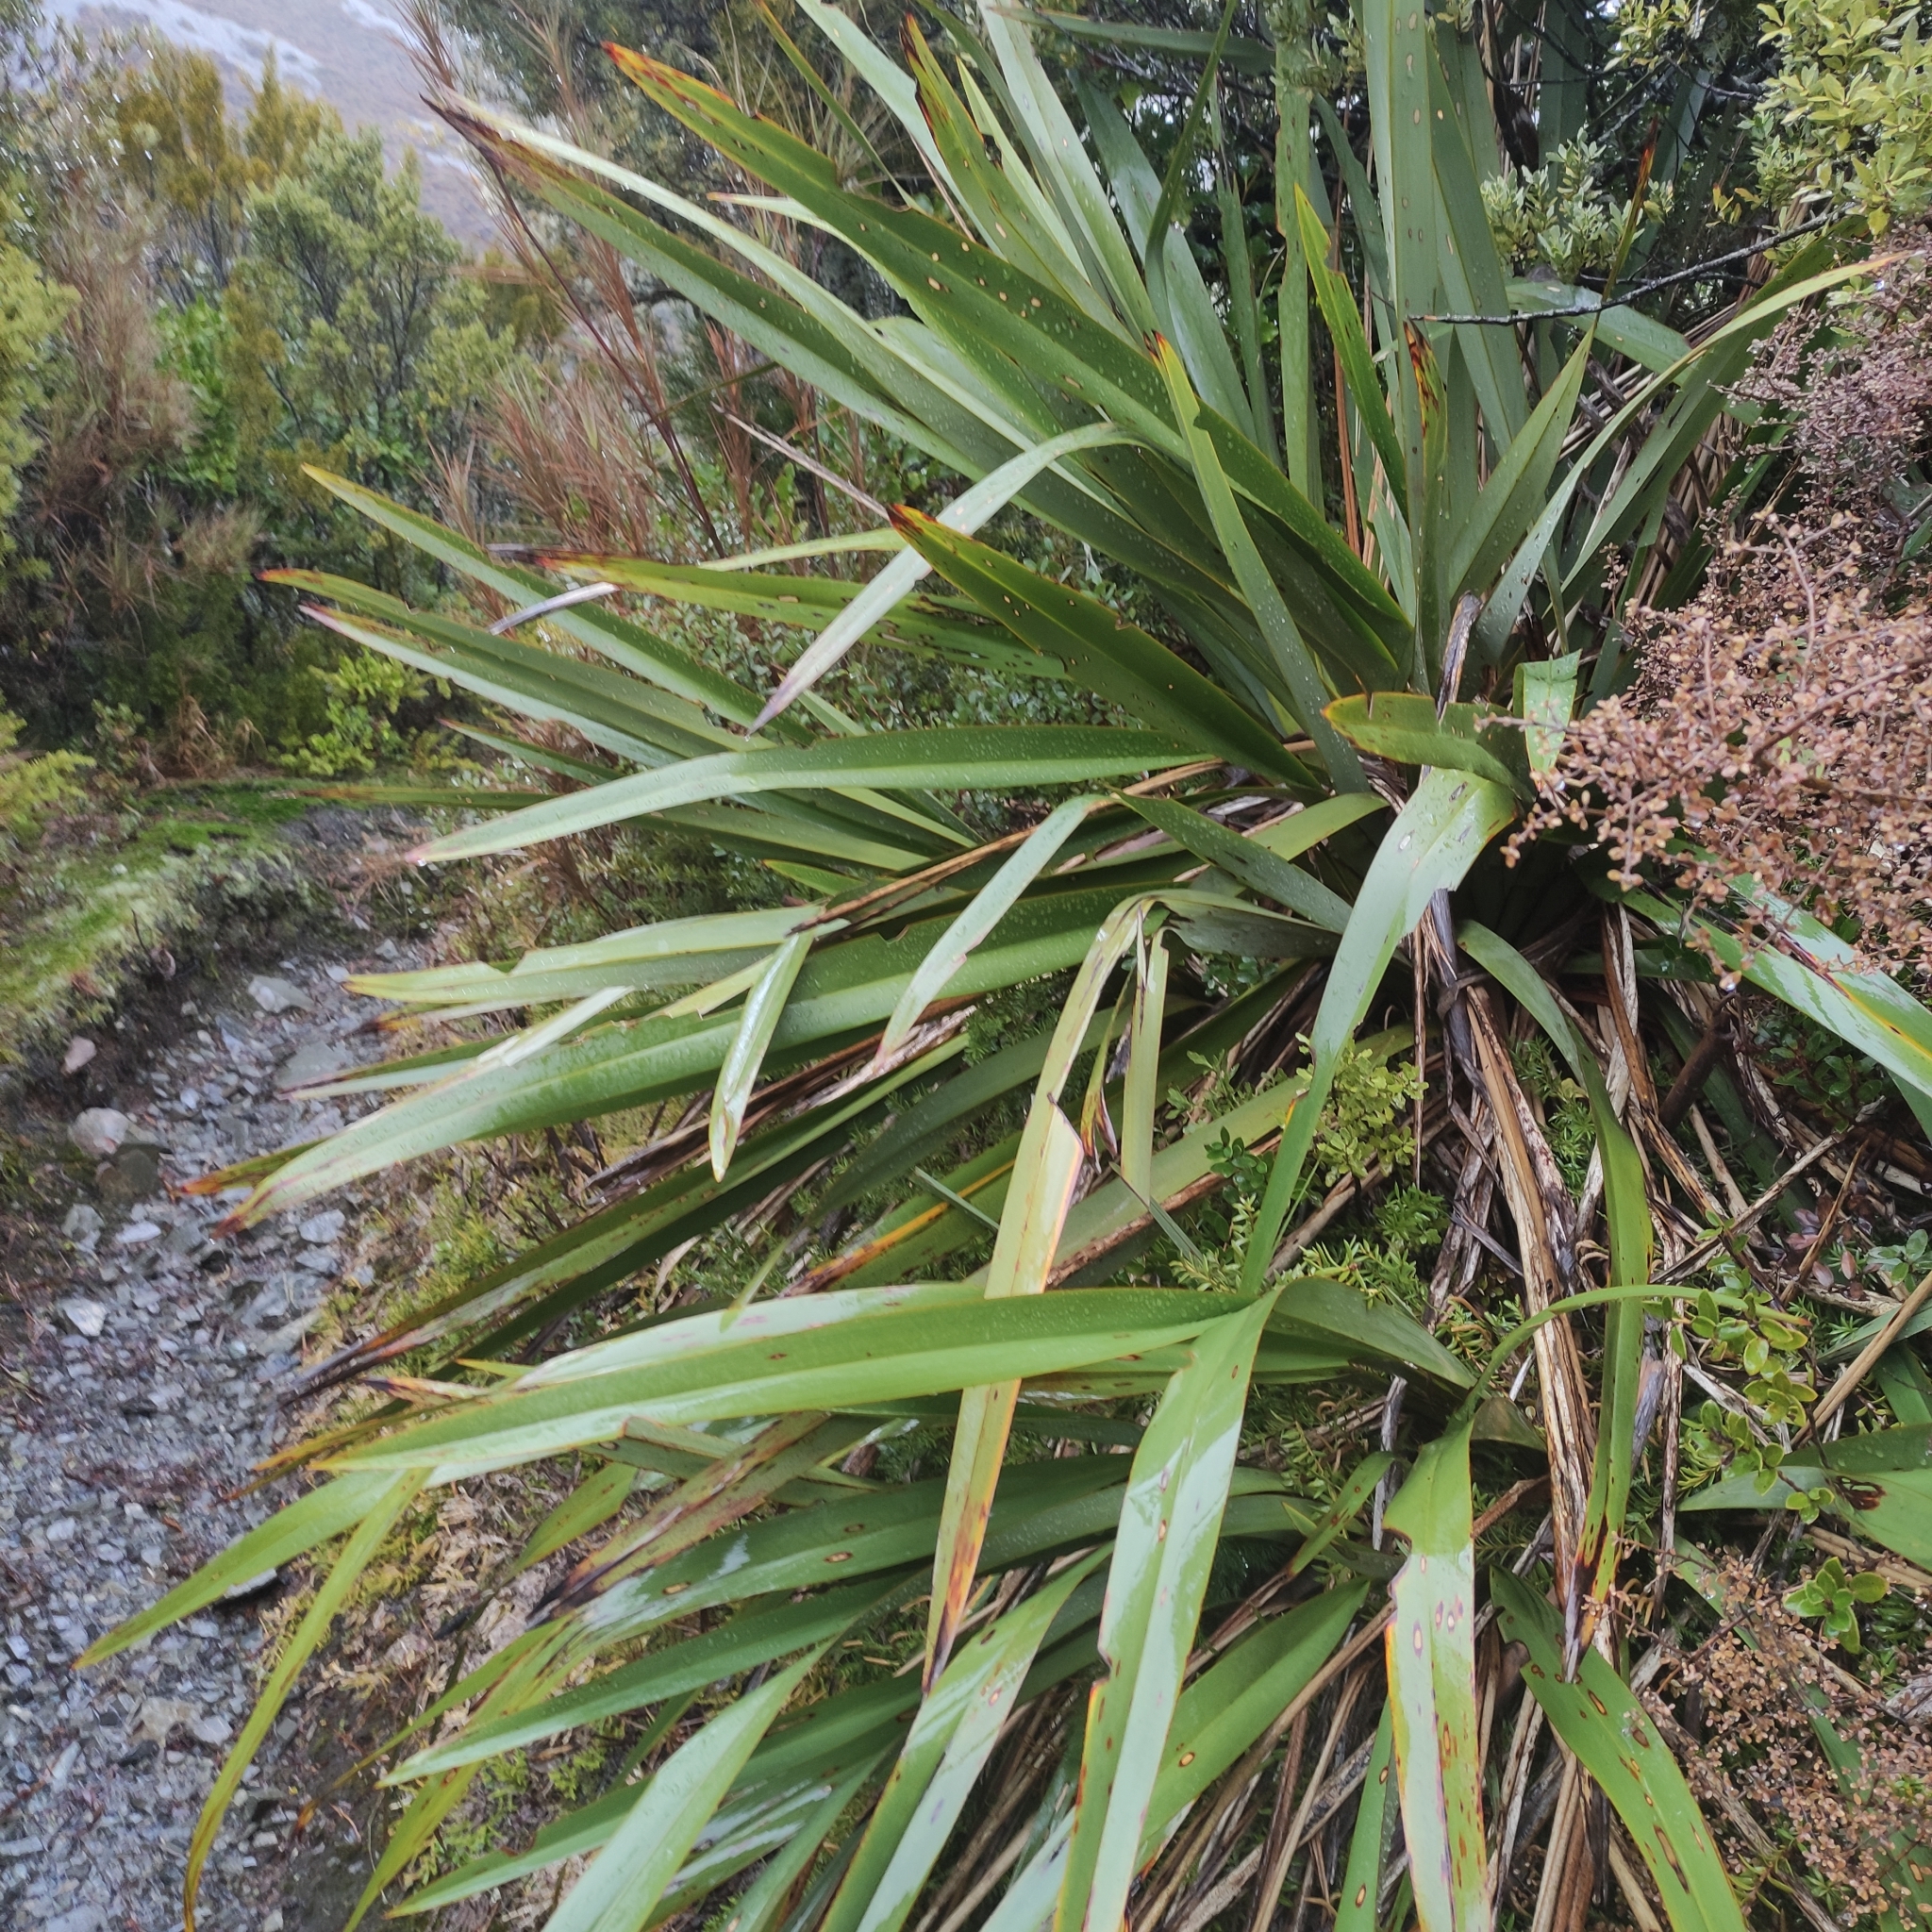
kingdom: Plantae
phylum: Tracheophyta
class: Liliopsida
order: Asparagales
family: Asphodelaceae
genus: Phormium
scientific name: Phormium colensoi
